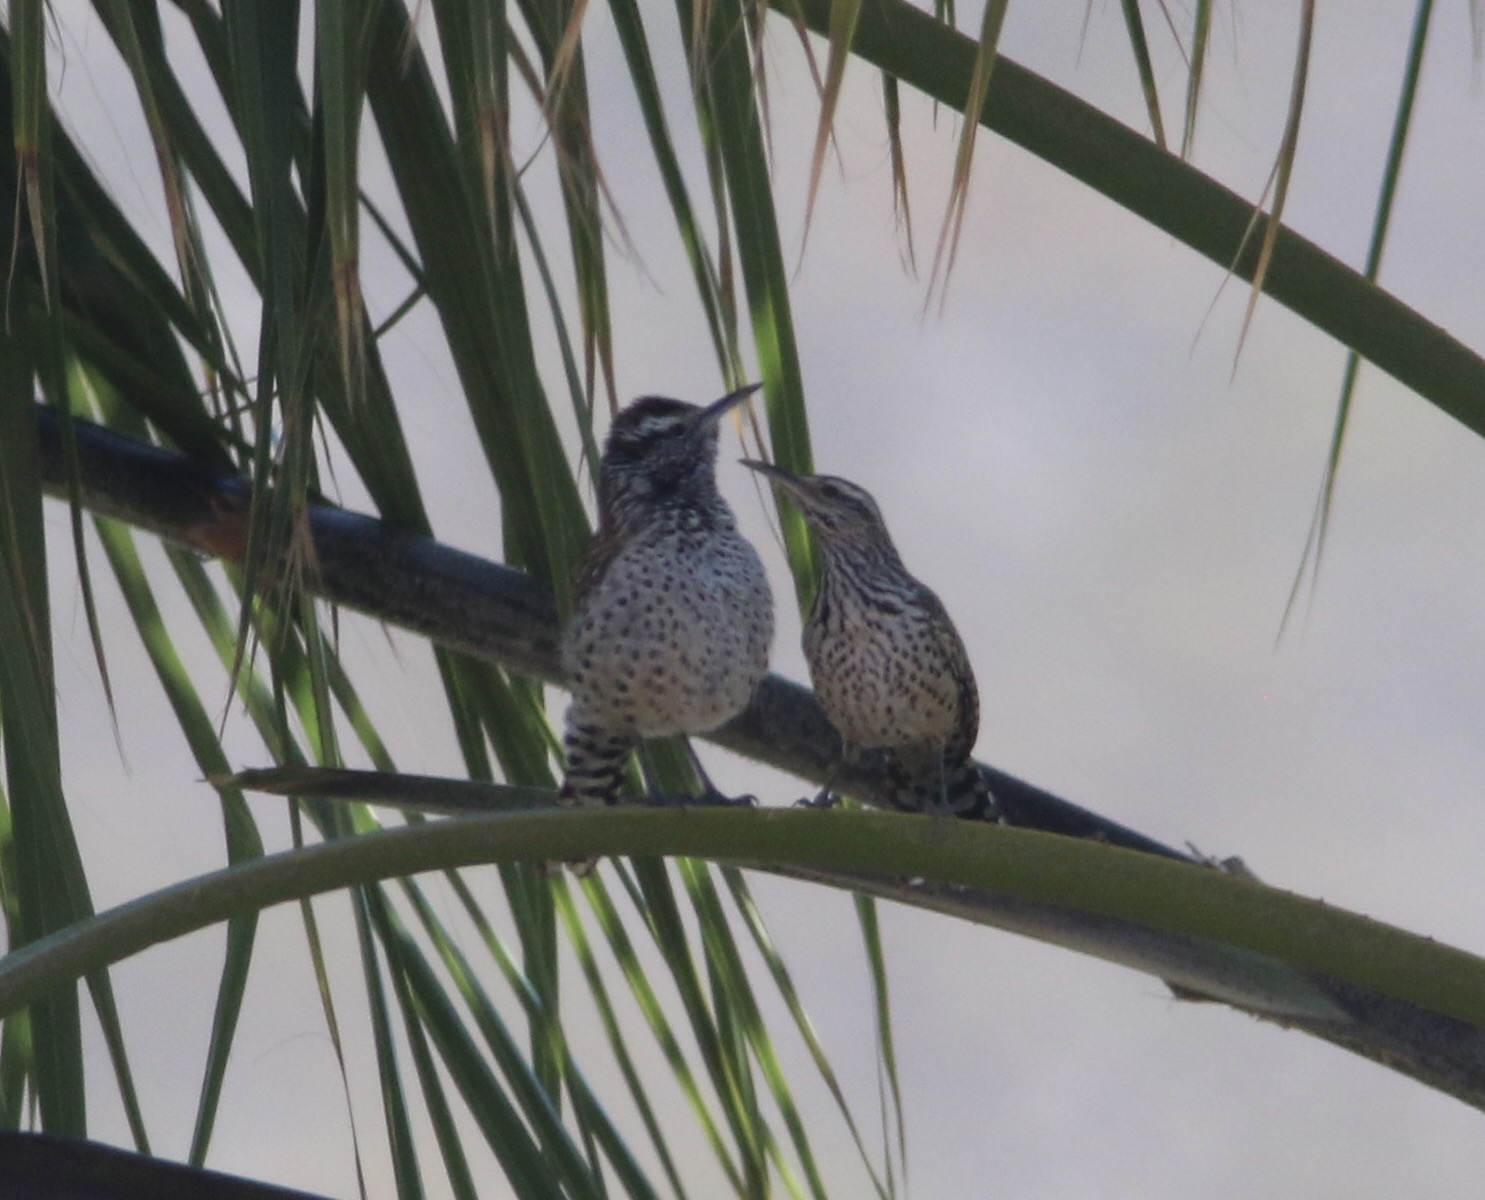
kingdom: Animalia
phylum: Chordata
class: Aves
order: Passeriformes
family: Troglodytidae
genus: Campylorhynchus
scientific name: Campylorhynchus brunneicapillus
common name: Cactus wren
